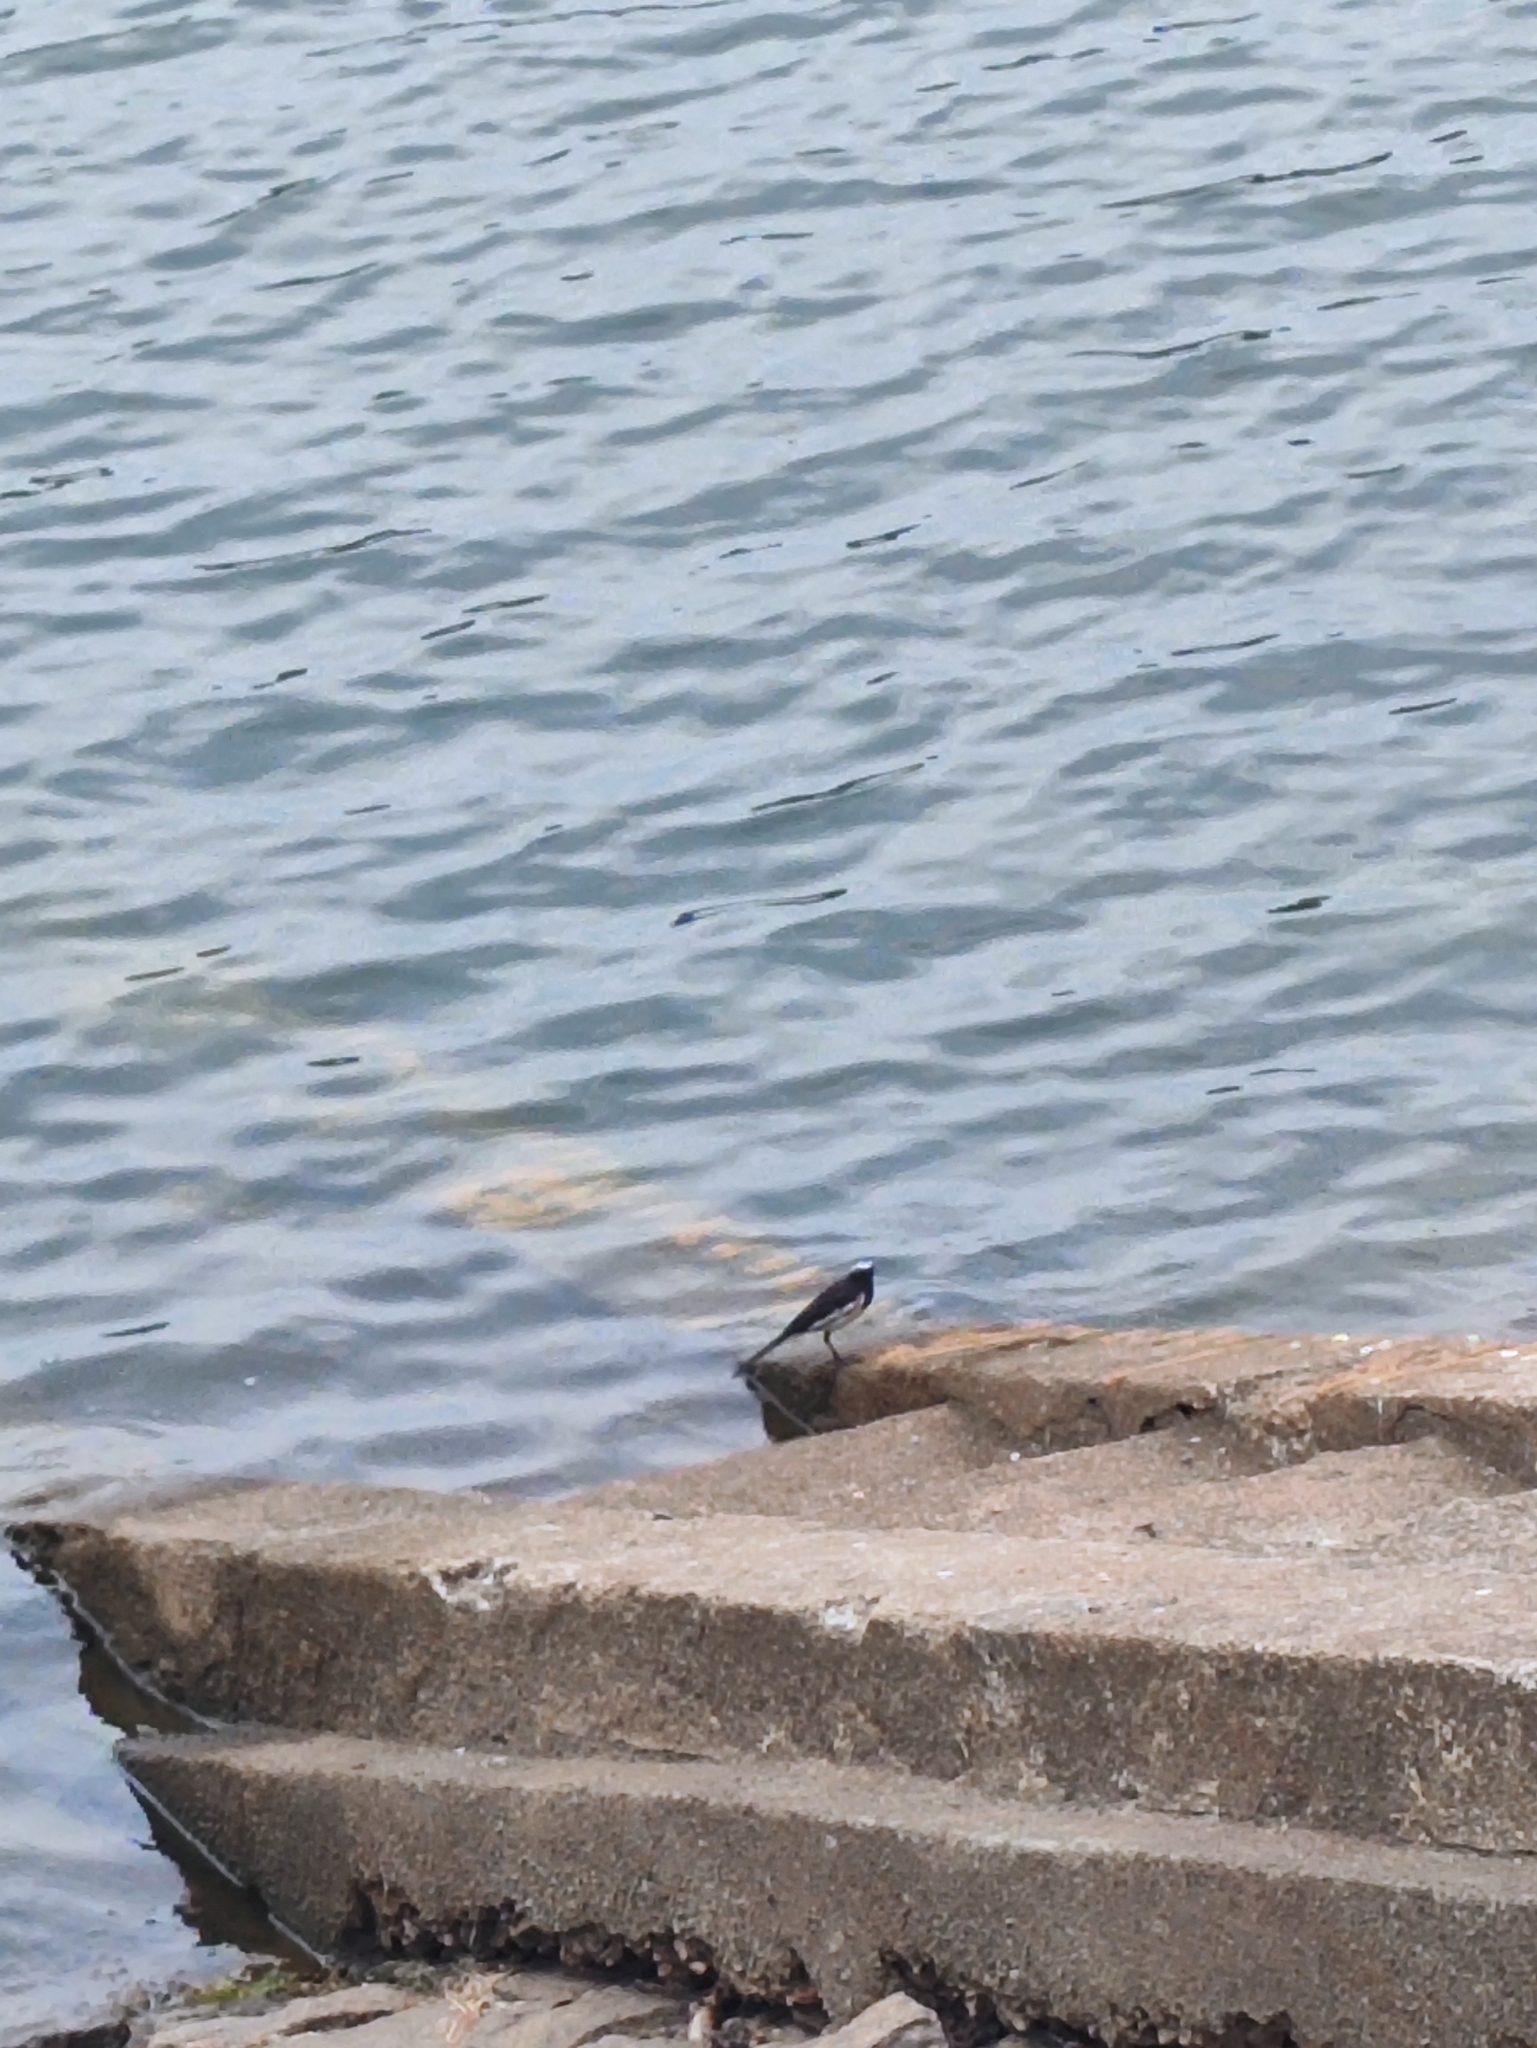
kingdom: Animalia
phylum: Chordata
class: Aves
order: Passeriformes
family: Motacillidae
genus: Motacilla
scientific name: Motacilla maderaspatensis
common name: White-browed wagtail
